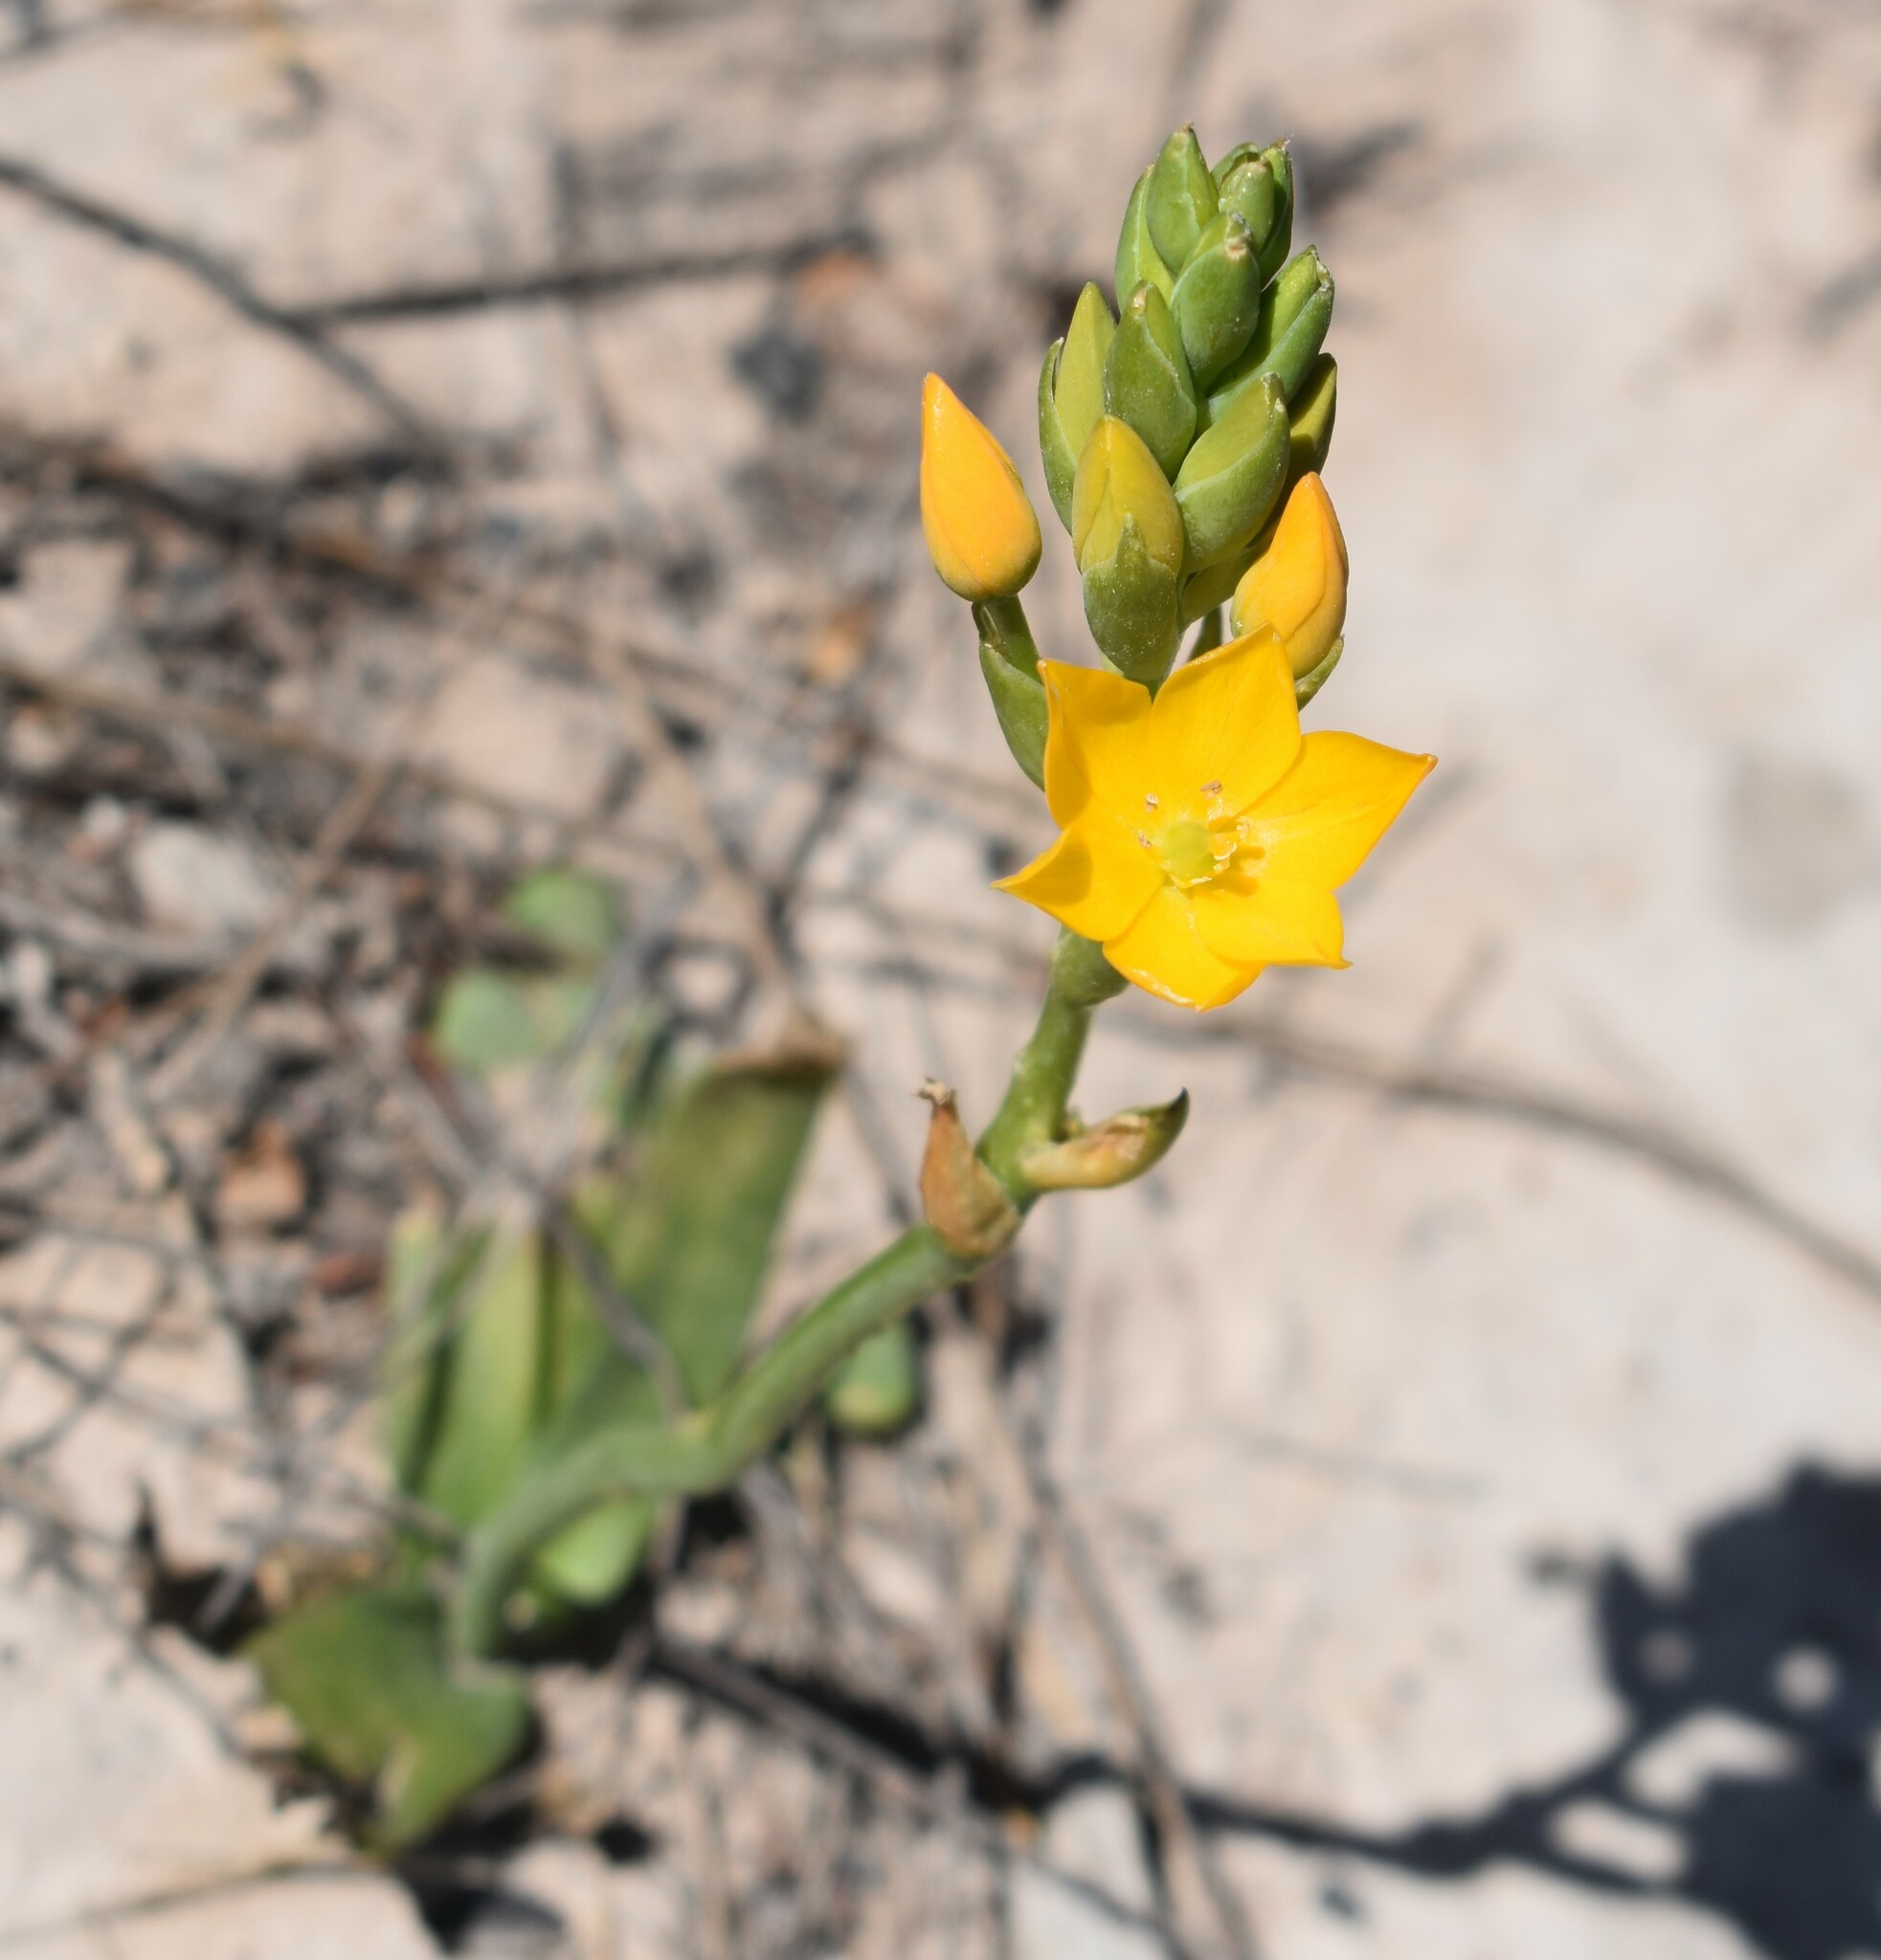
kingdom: Plantae
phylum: Tracheophyta
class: Liliopsida
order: Asparagales
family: Asparagaceae
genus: Ornithogalum
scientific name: Ornithogalum dubium
